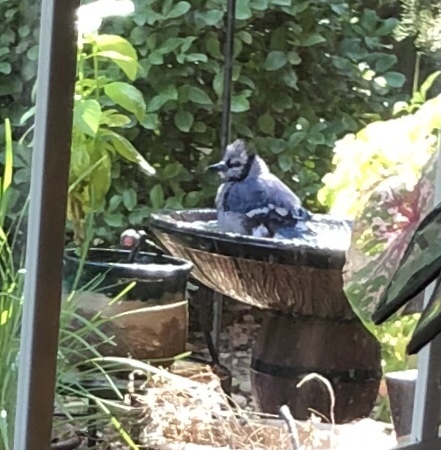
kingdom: Animalia
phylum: Chordata
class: Aves
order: Passeriformes
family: Corvidae
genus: Cyanocitta
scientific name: Cyanocitta cristata
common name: Blue jay
